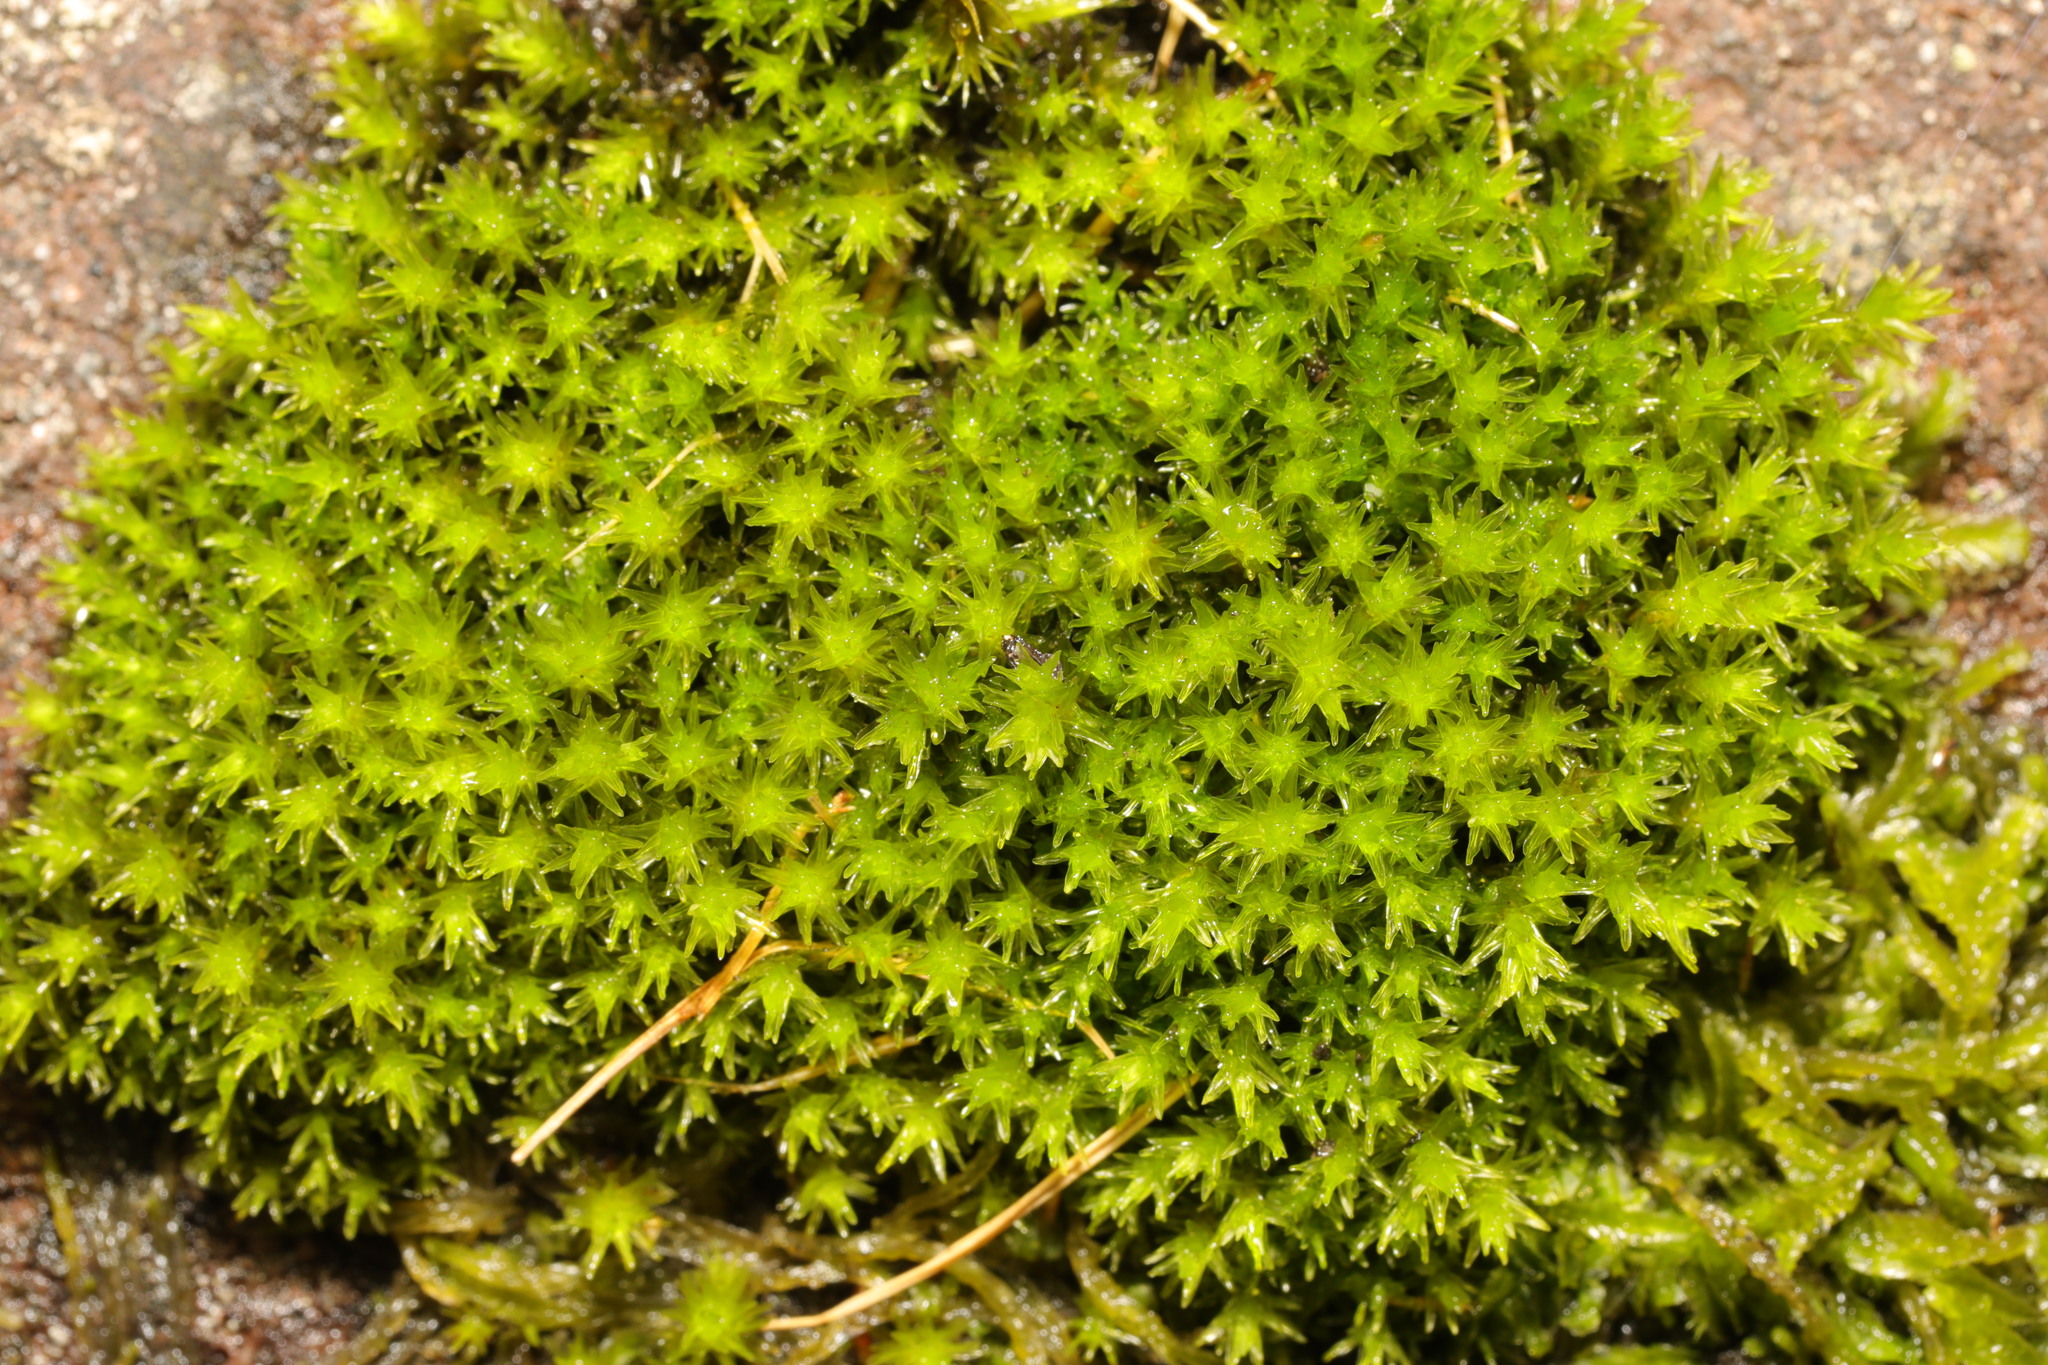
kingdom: Plantae
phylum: Bryophyta
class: Bryopsida
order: Dicranales
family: Aongstroemiaceae
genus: Dichodontium
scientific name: Dichodontium pellucidum
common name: Transparent fork moss
